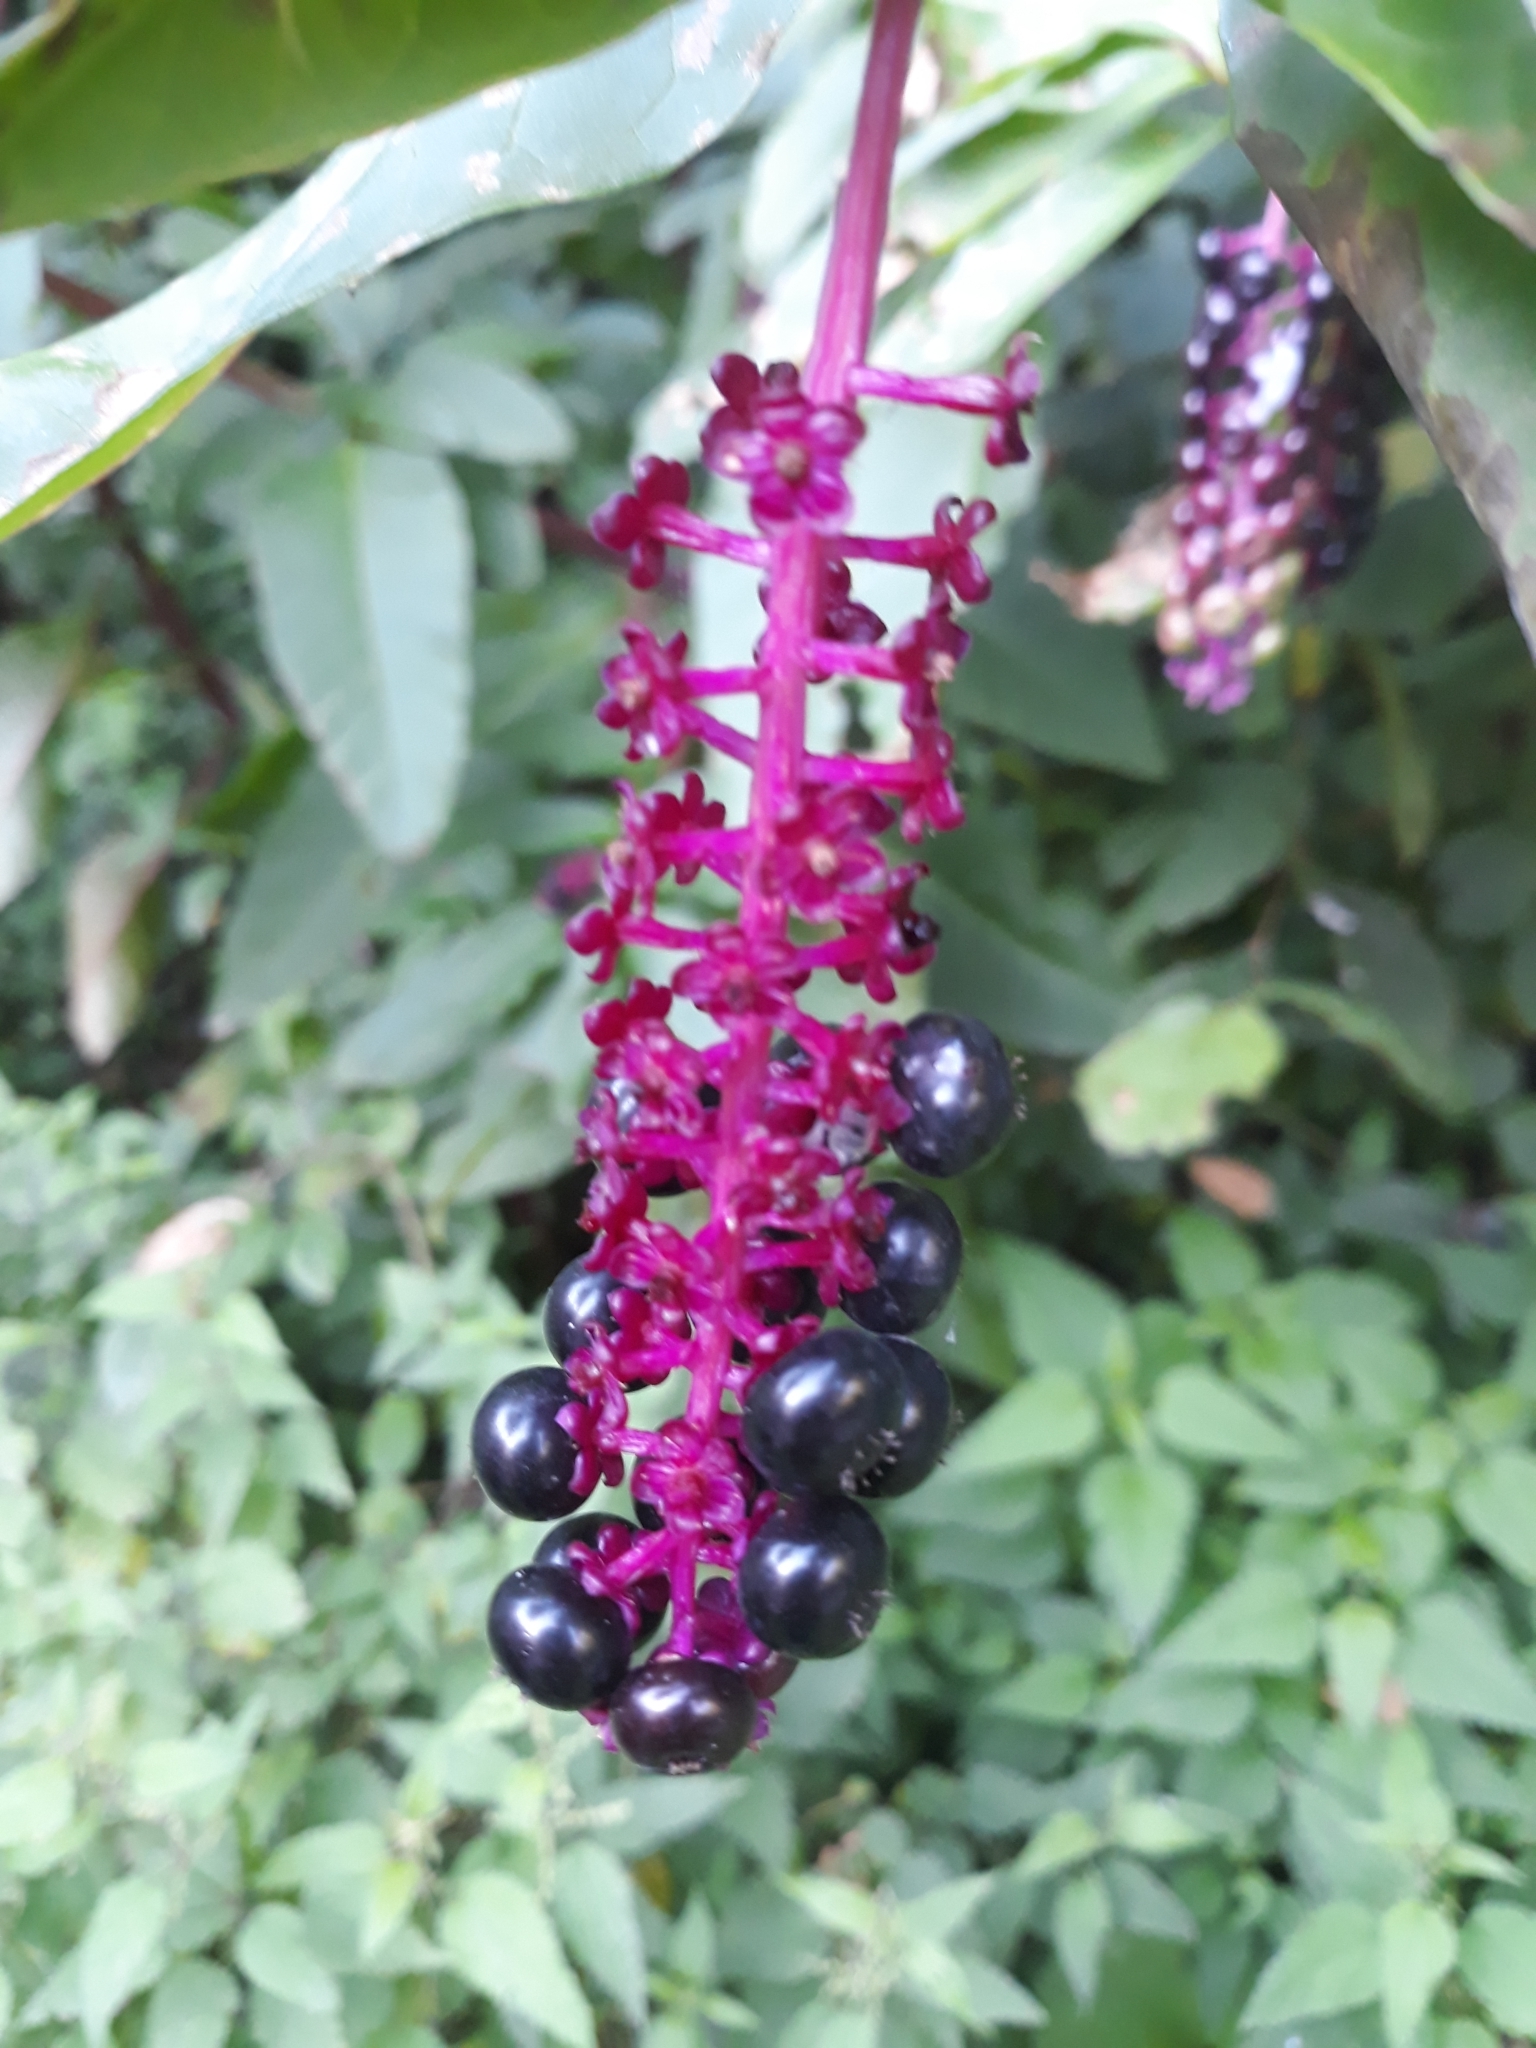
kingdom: Plantae
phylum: Tracheophyta
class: Magnoliopsida
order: Caryophyllales
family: Phytolaccaceae
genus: Phytolacca
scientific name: Phytolacca americana
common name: American pokeweed
